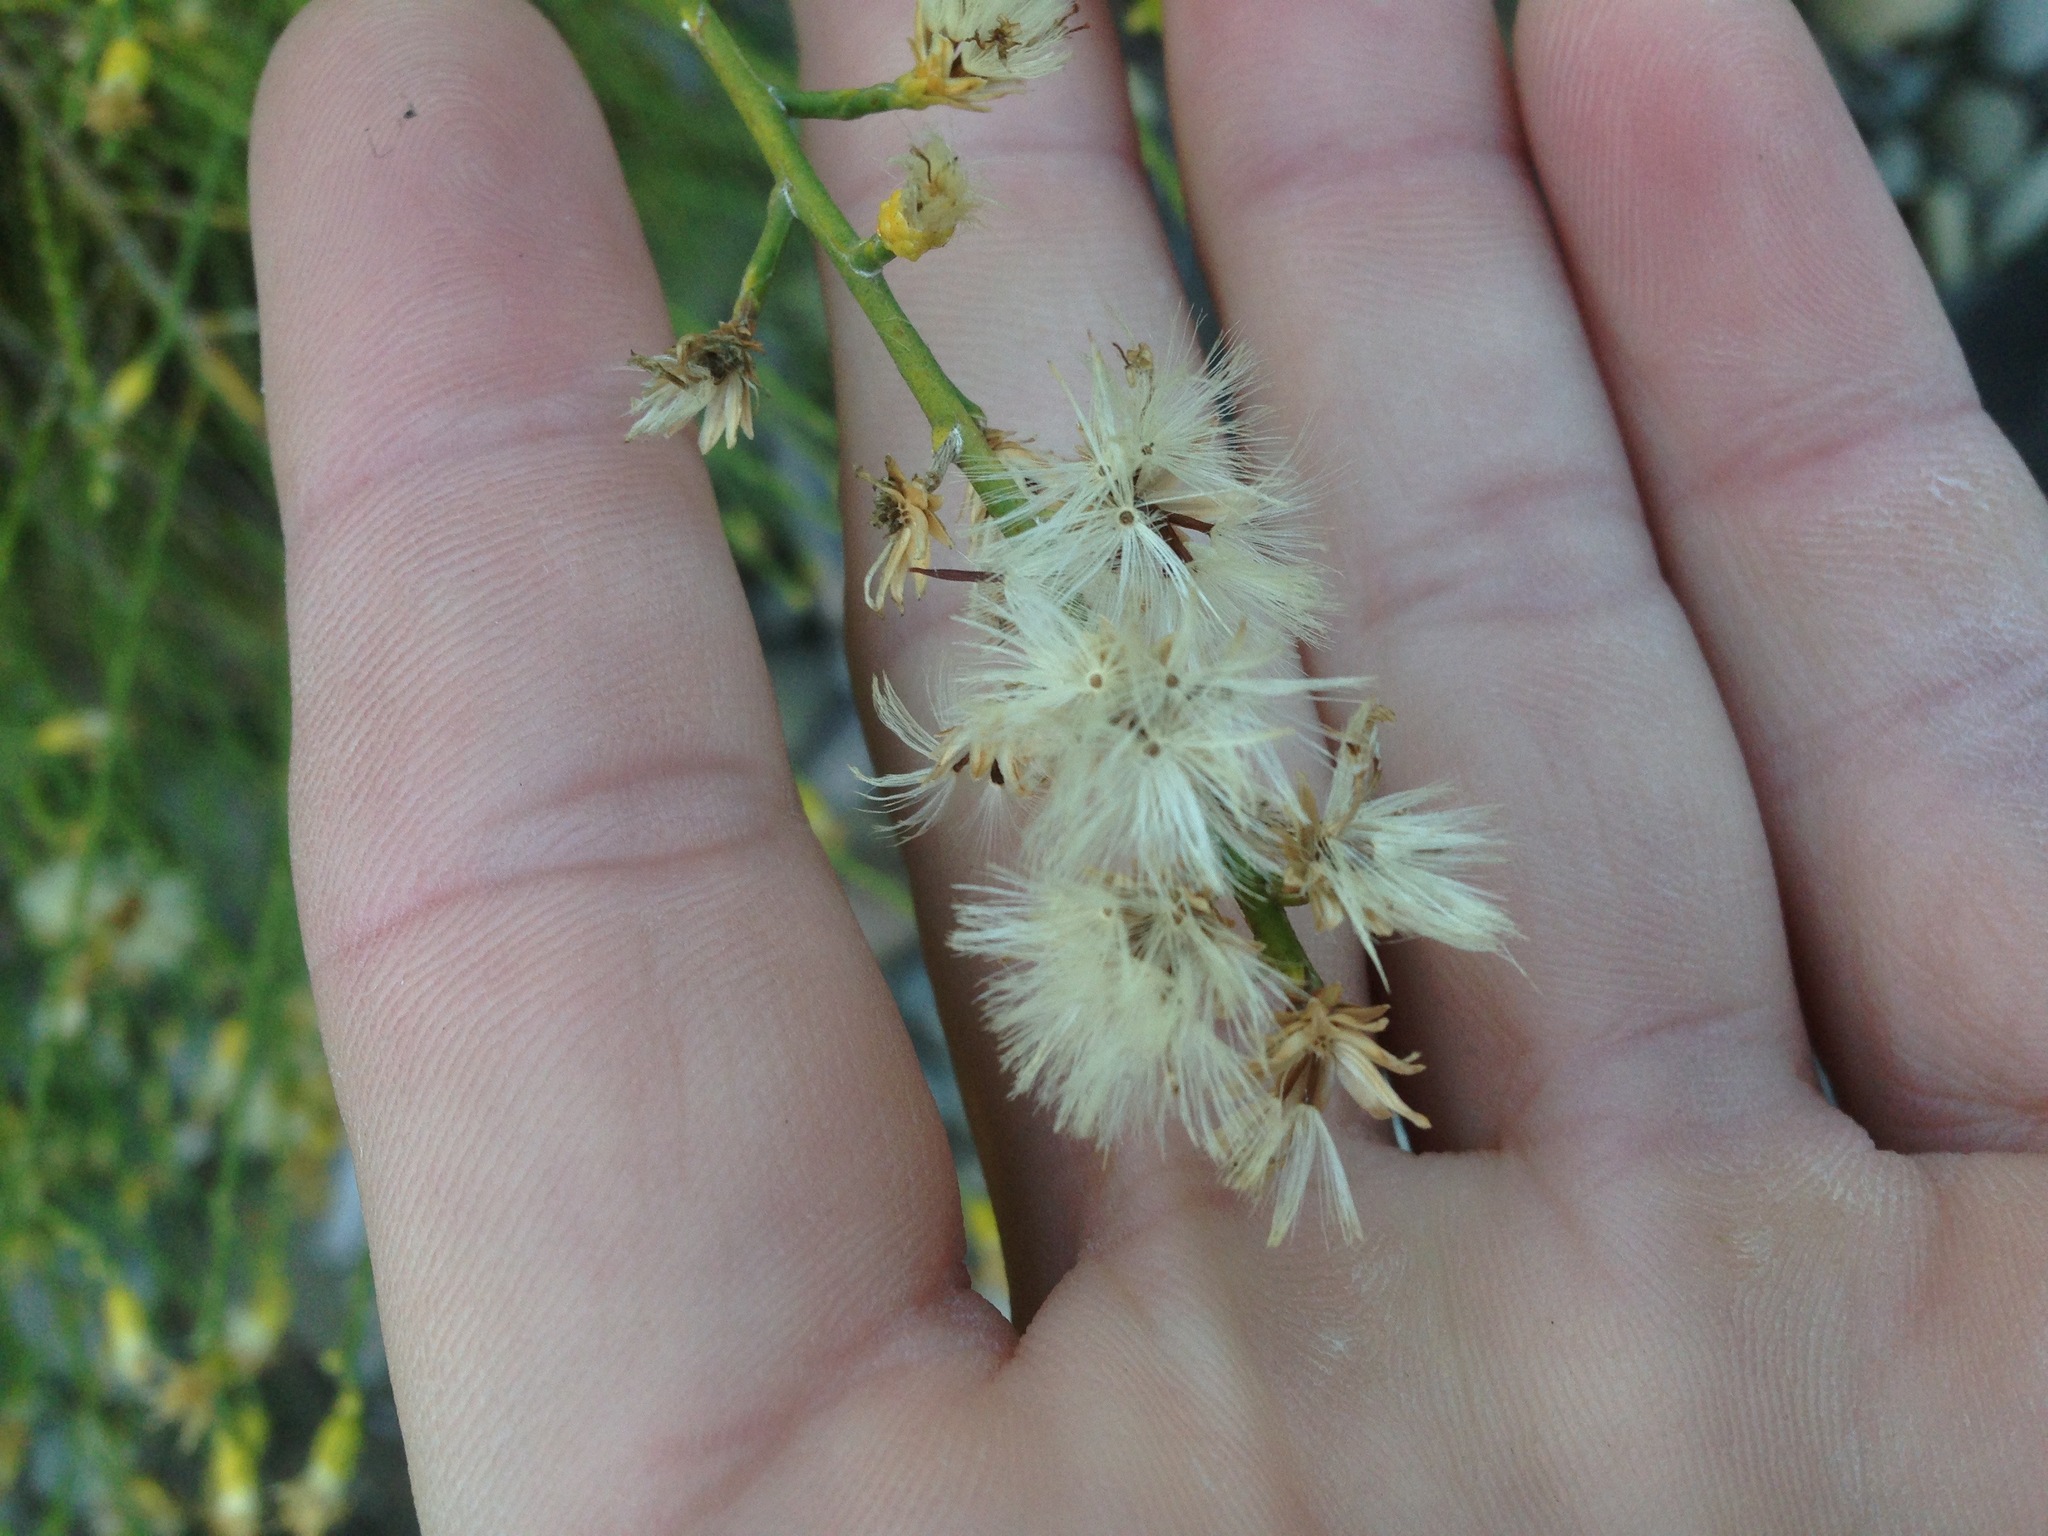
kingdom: Plantae
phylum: Tracheophyta
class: Magnoliopsida
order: Asterales
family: Asteraceae
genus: Lepidospartum
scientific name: Lepidospartum squamatum
